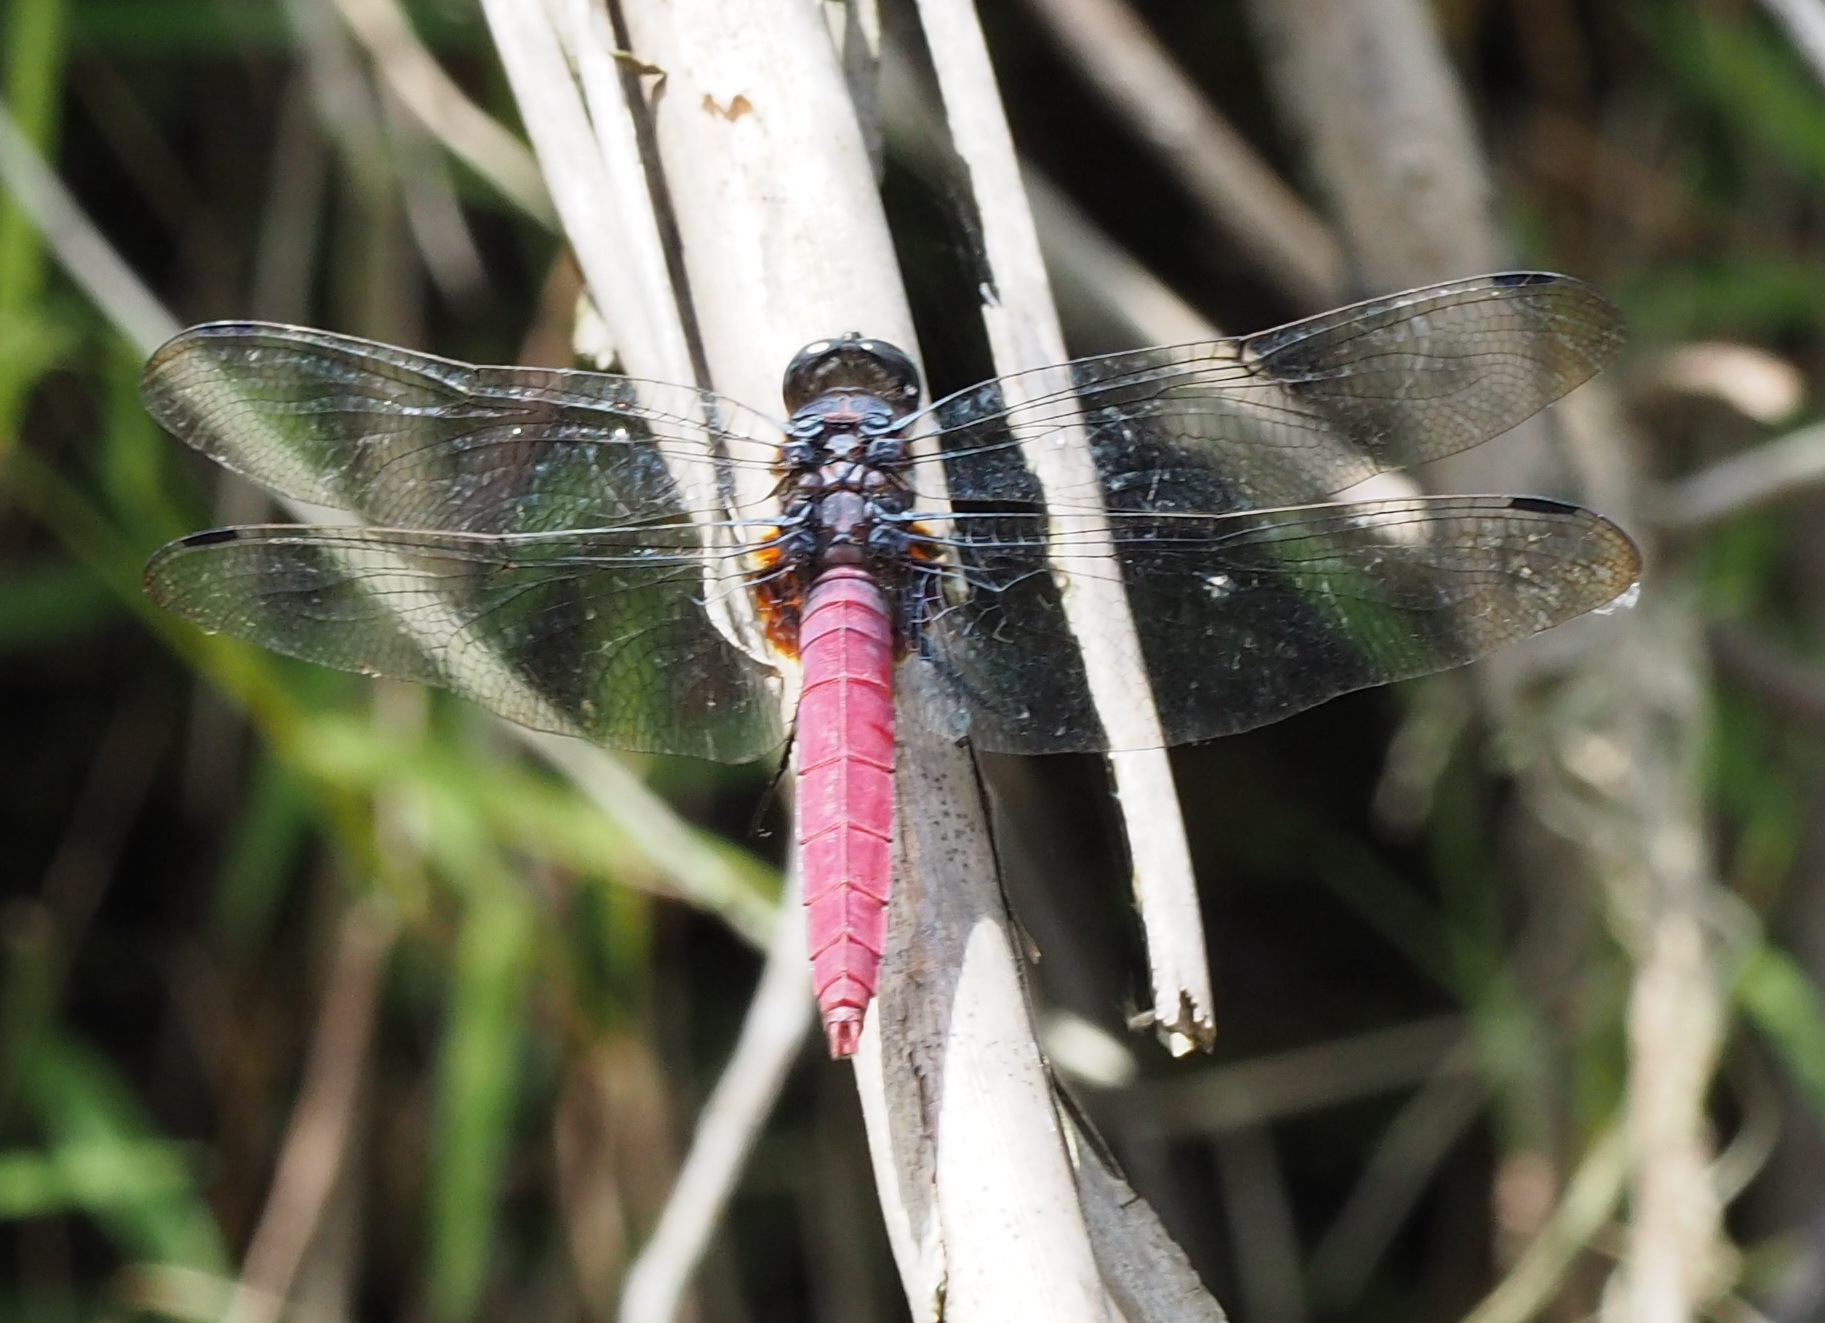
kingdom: Animalia
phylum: Arthropoda
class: Insecta
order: Odonata
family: Libellulidae
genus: Orthetrum
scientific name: Orthetrum pruinosum
